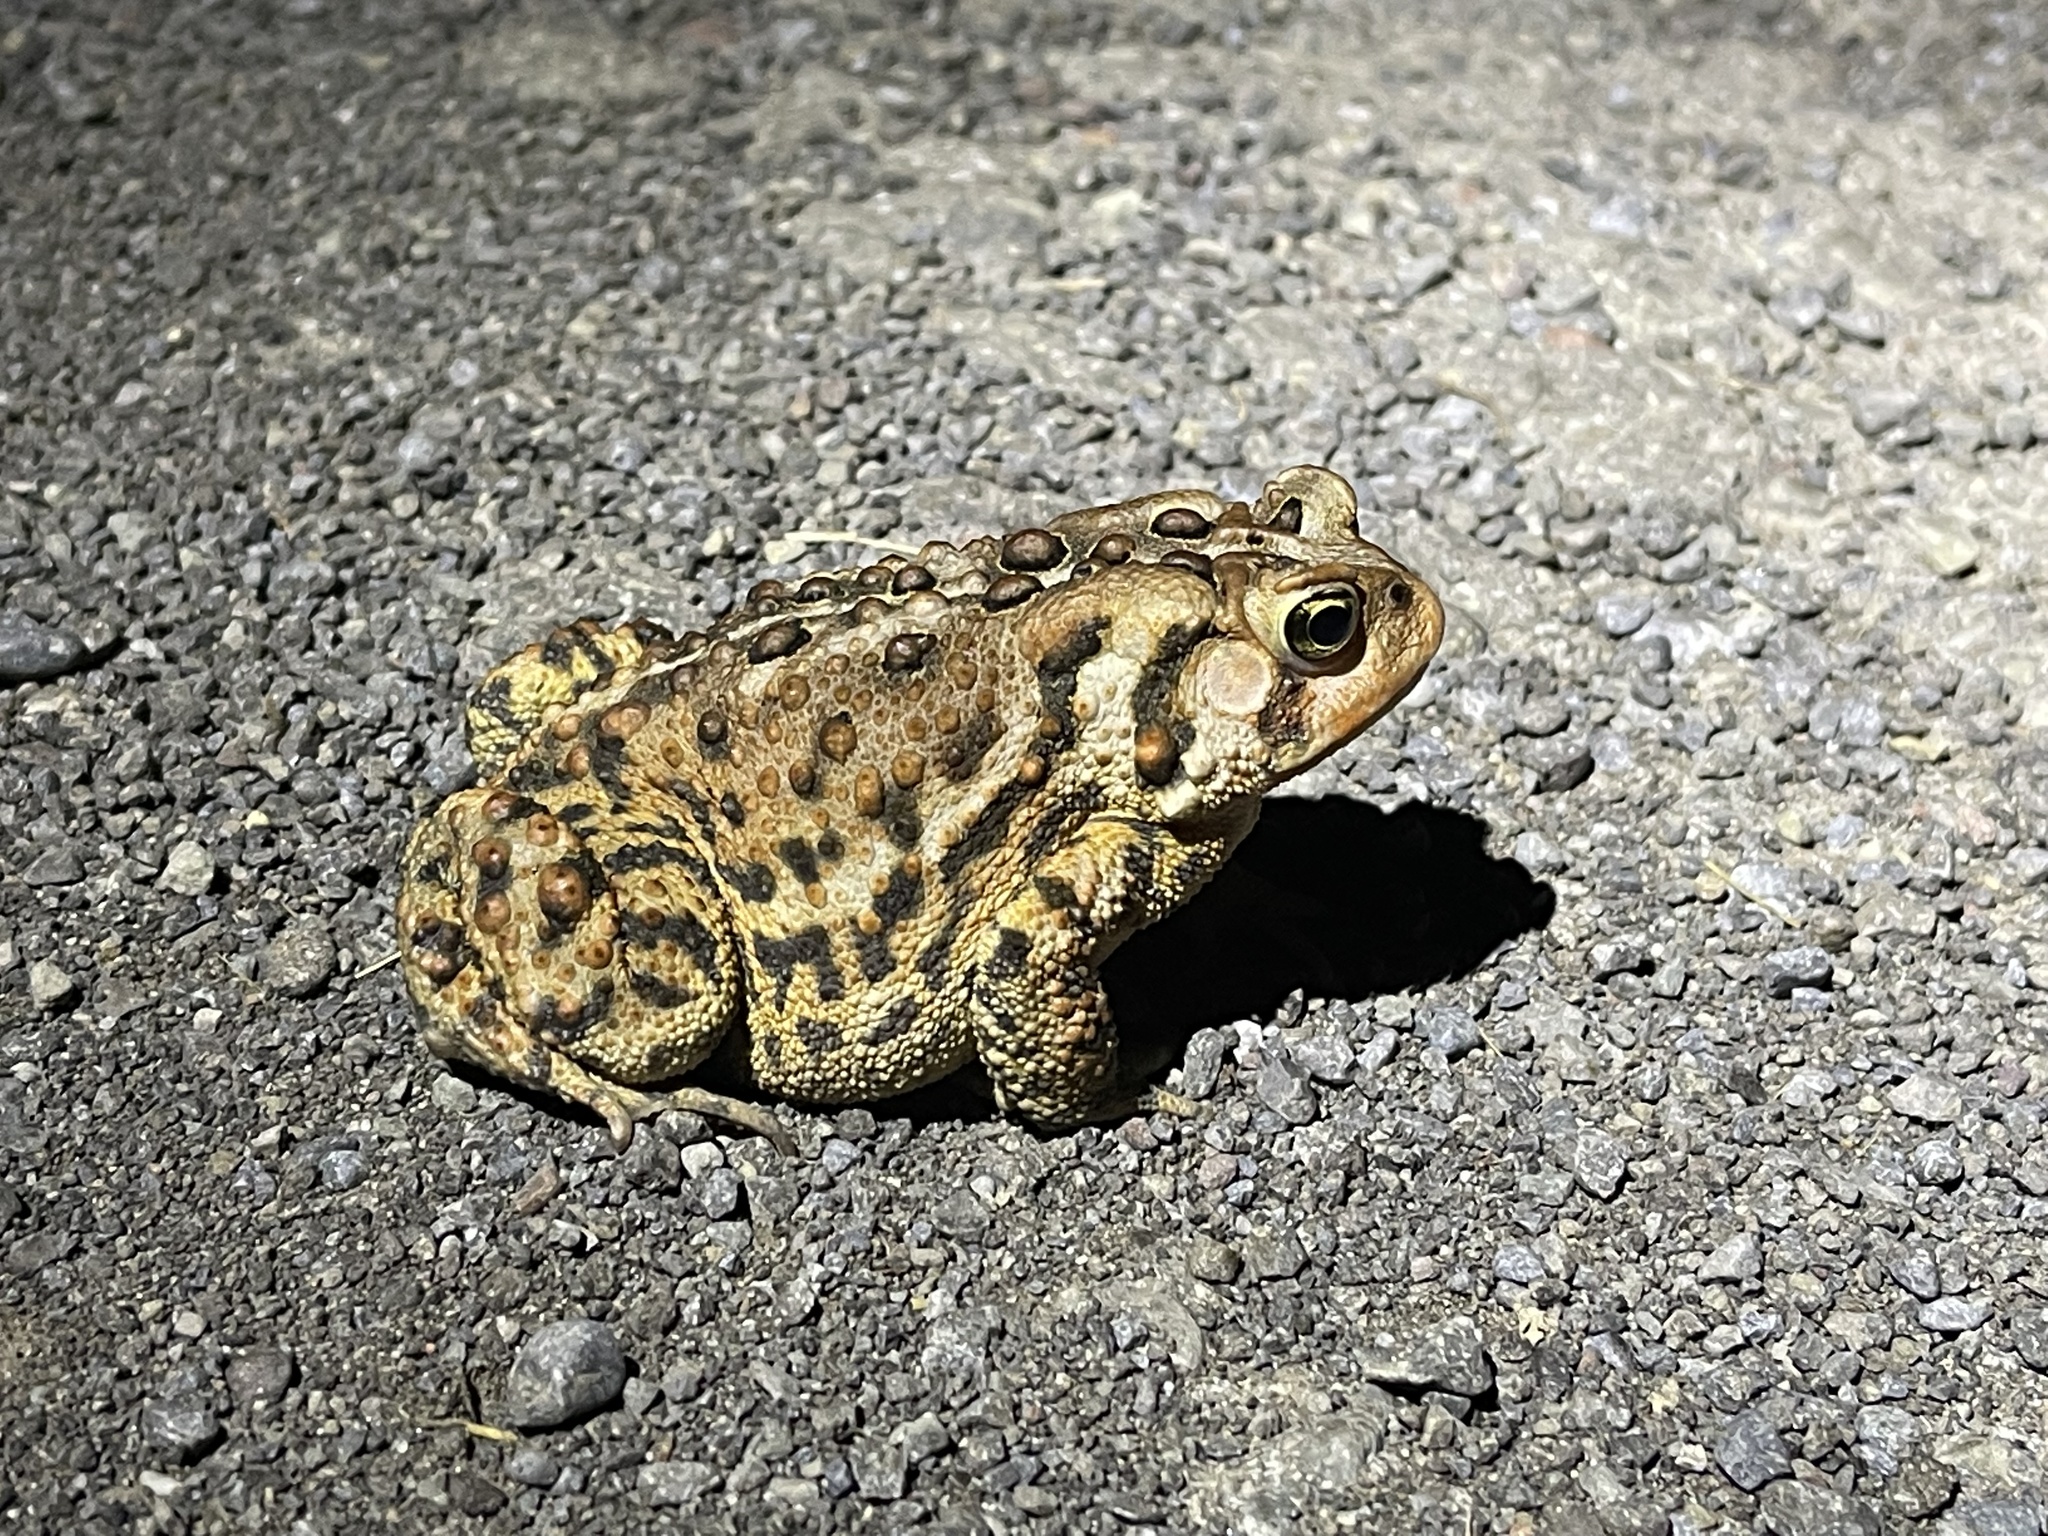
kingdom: Animalia
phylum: Chordata
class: Amphibia
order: Anura
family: Bufonidae
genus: Anaxyrus
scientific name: Anaxyrus americanus
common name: American toad
